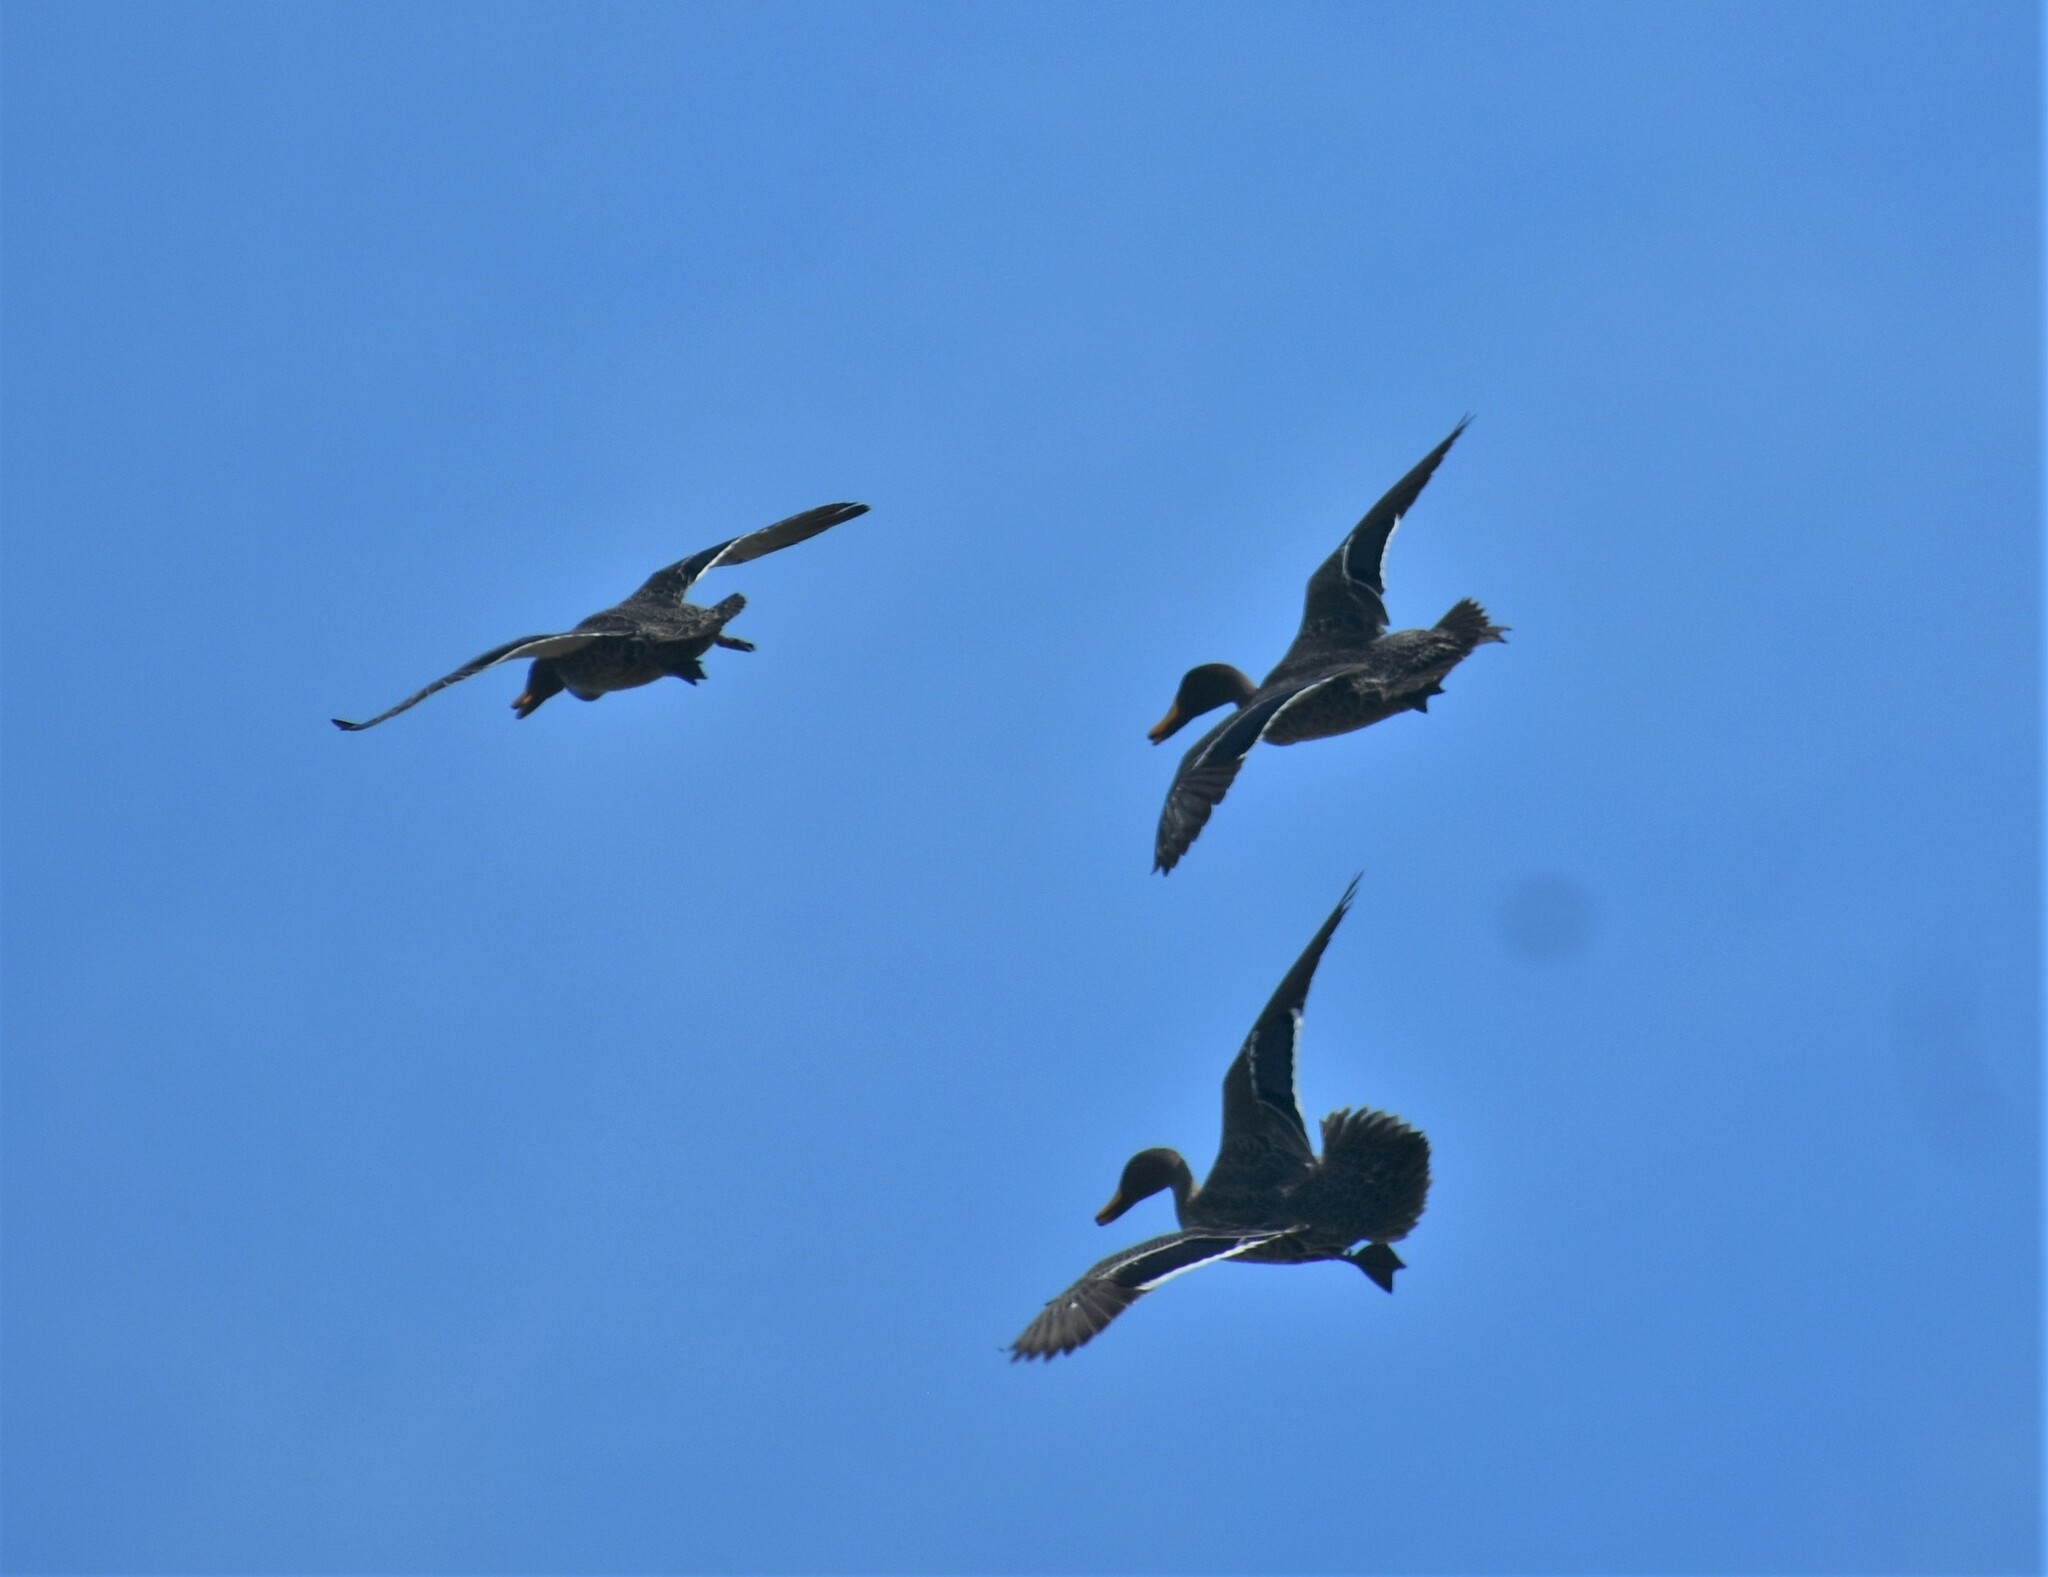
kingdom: Animalia
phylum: Chordata
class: Aves
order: Anseriformes
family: Anatidae
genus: Anas
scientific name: Anas undulata
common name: Yellow-billed duck
